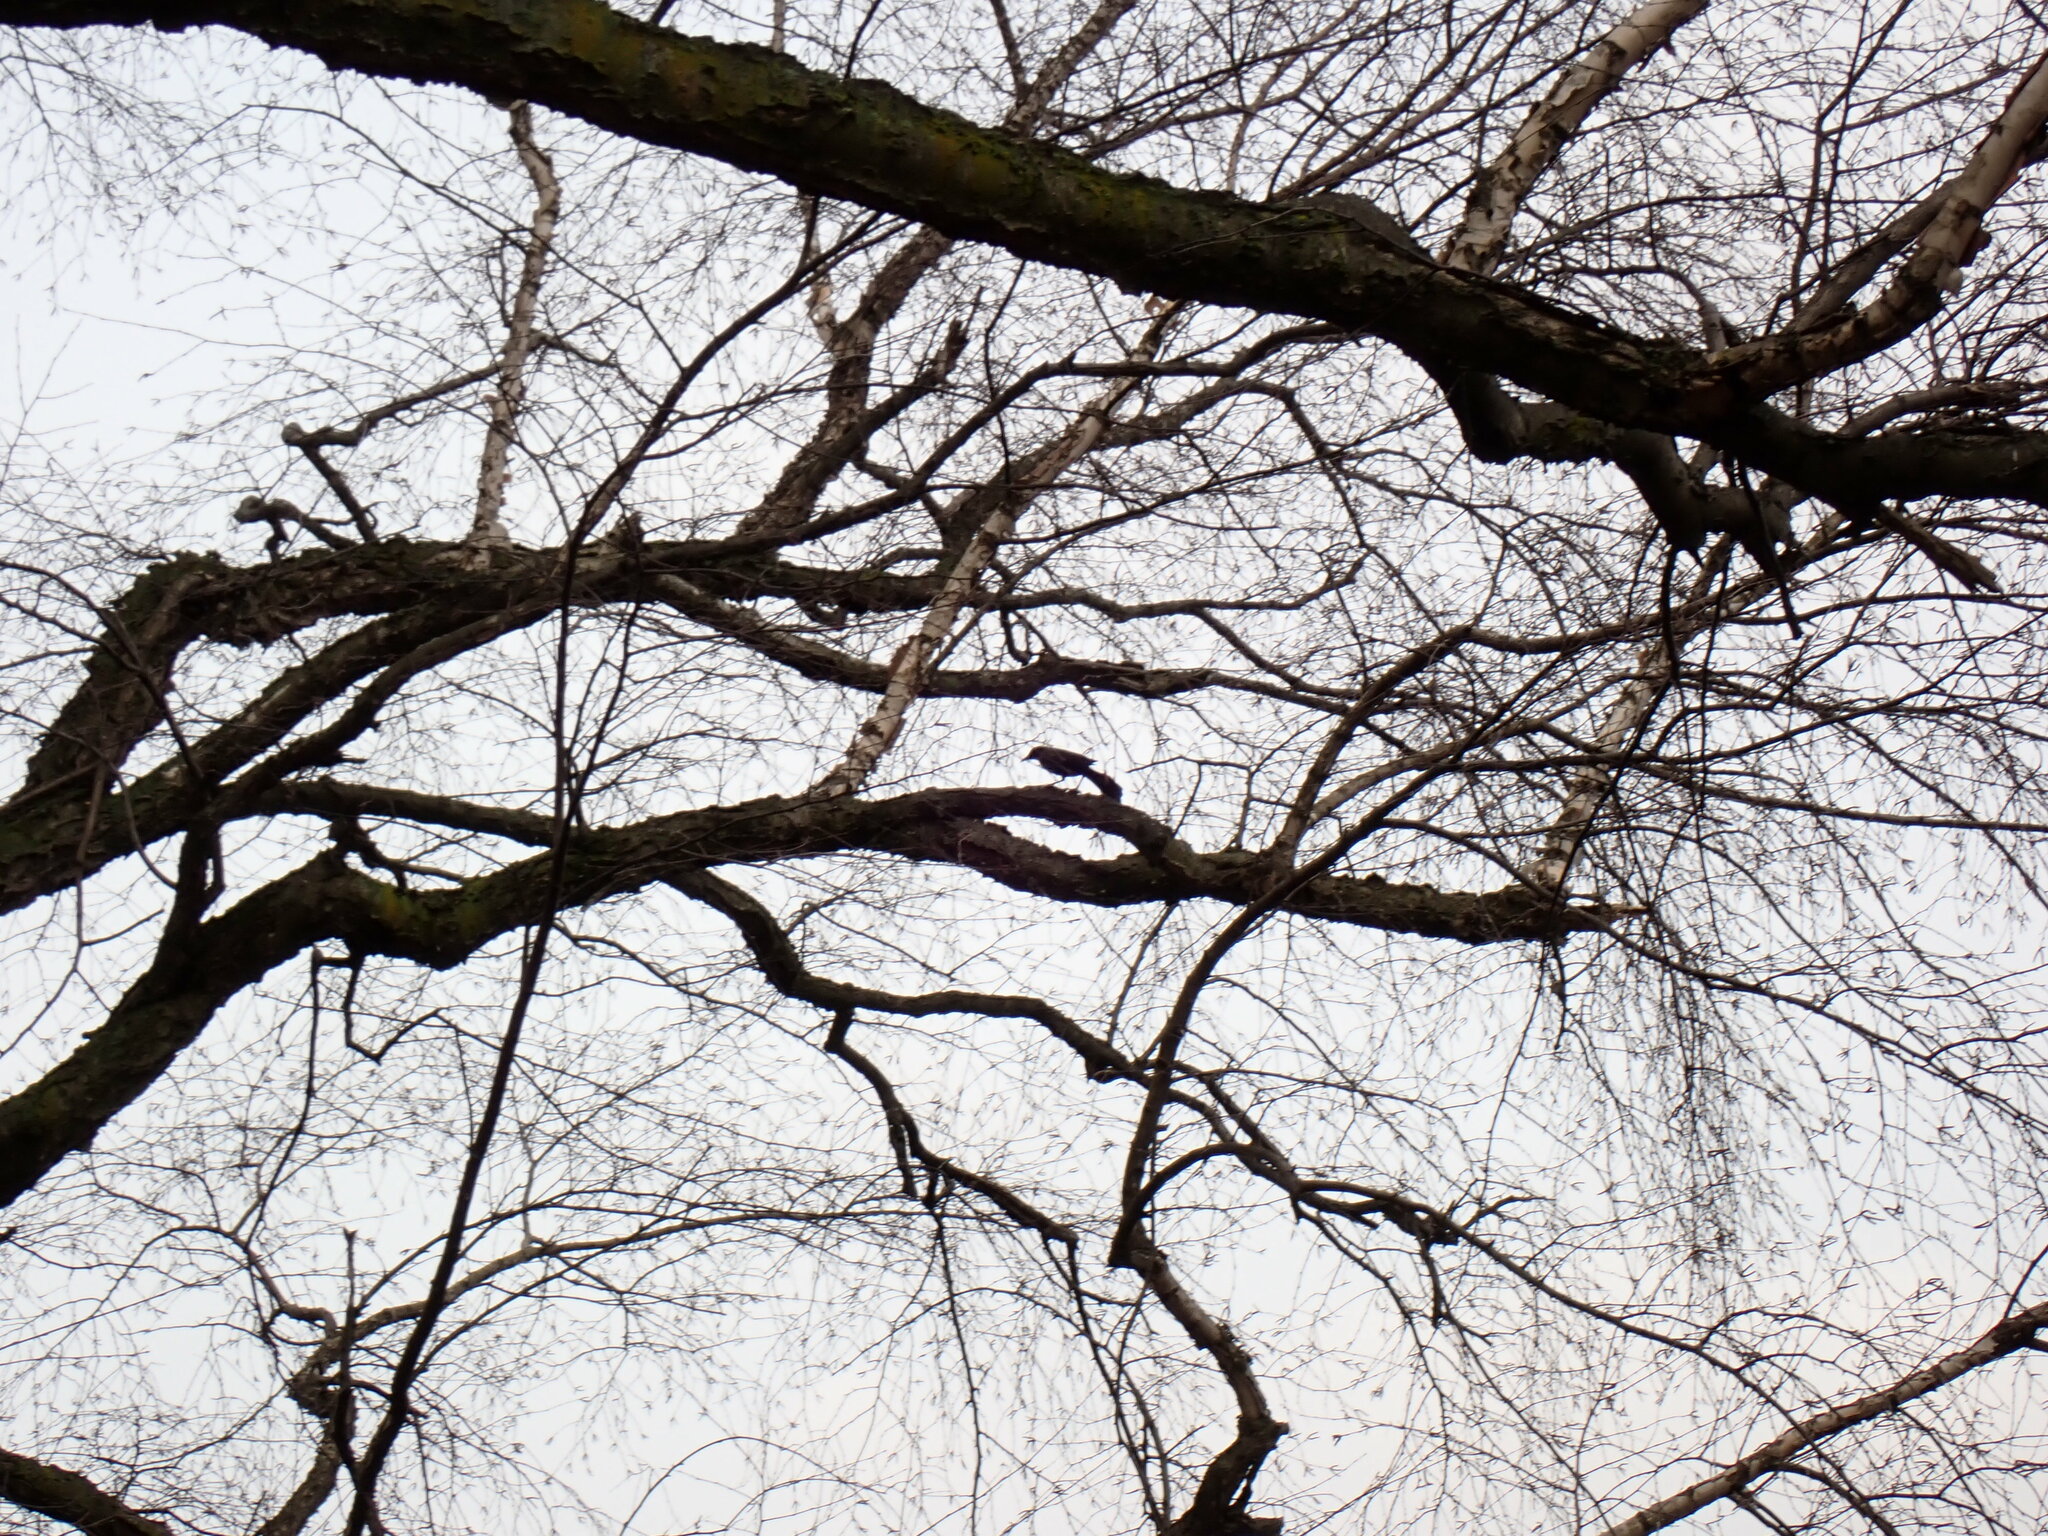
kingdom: Animalia
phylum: Chordata
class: Aves
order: Passeriformes
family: Icteridae
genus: Quiscalus
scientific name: Quiscalus quiscula
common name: Common grackle
